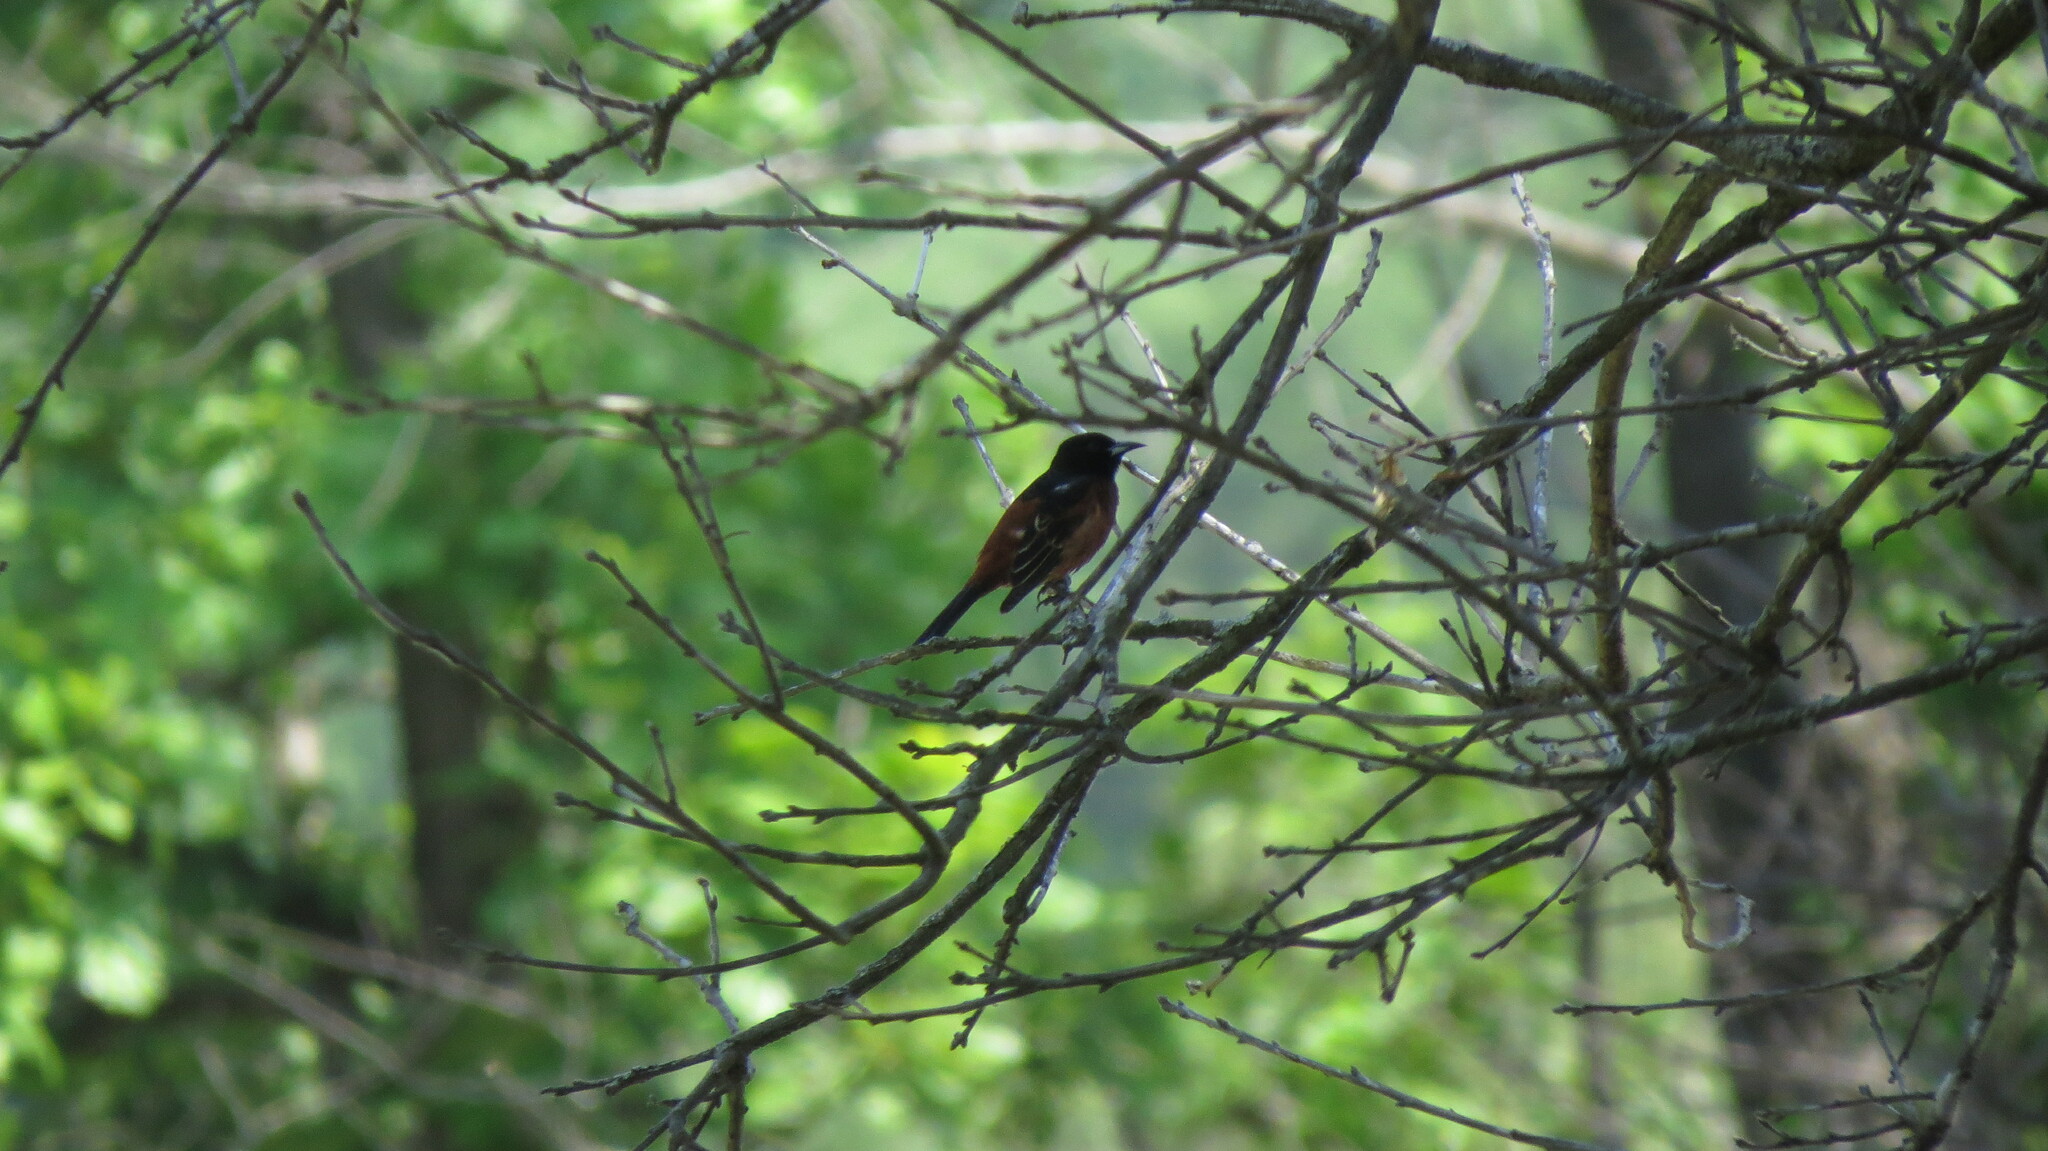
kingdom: Animalia
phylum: Chordata
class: Aves
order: Passeriformes
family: Icteridae
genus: Icterus
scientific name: Icterus spurius
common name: Orchard oriole
